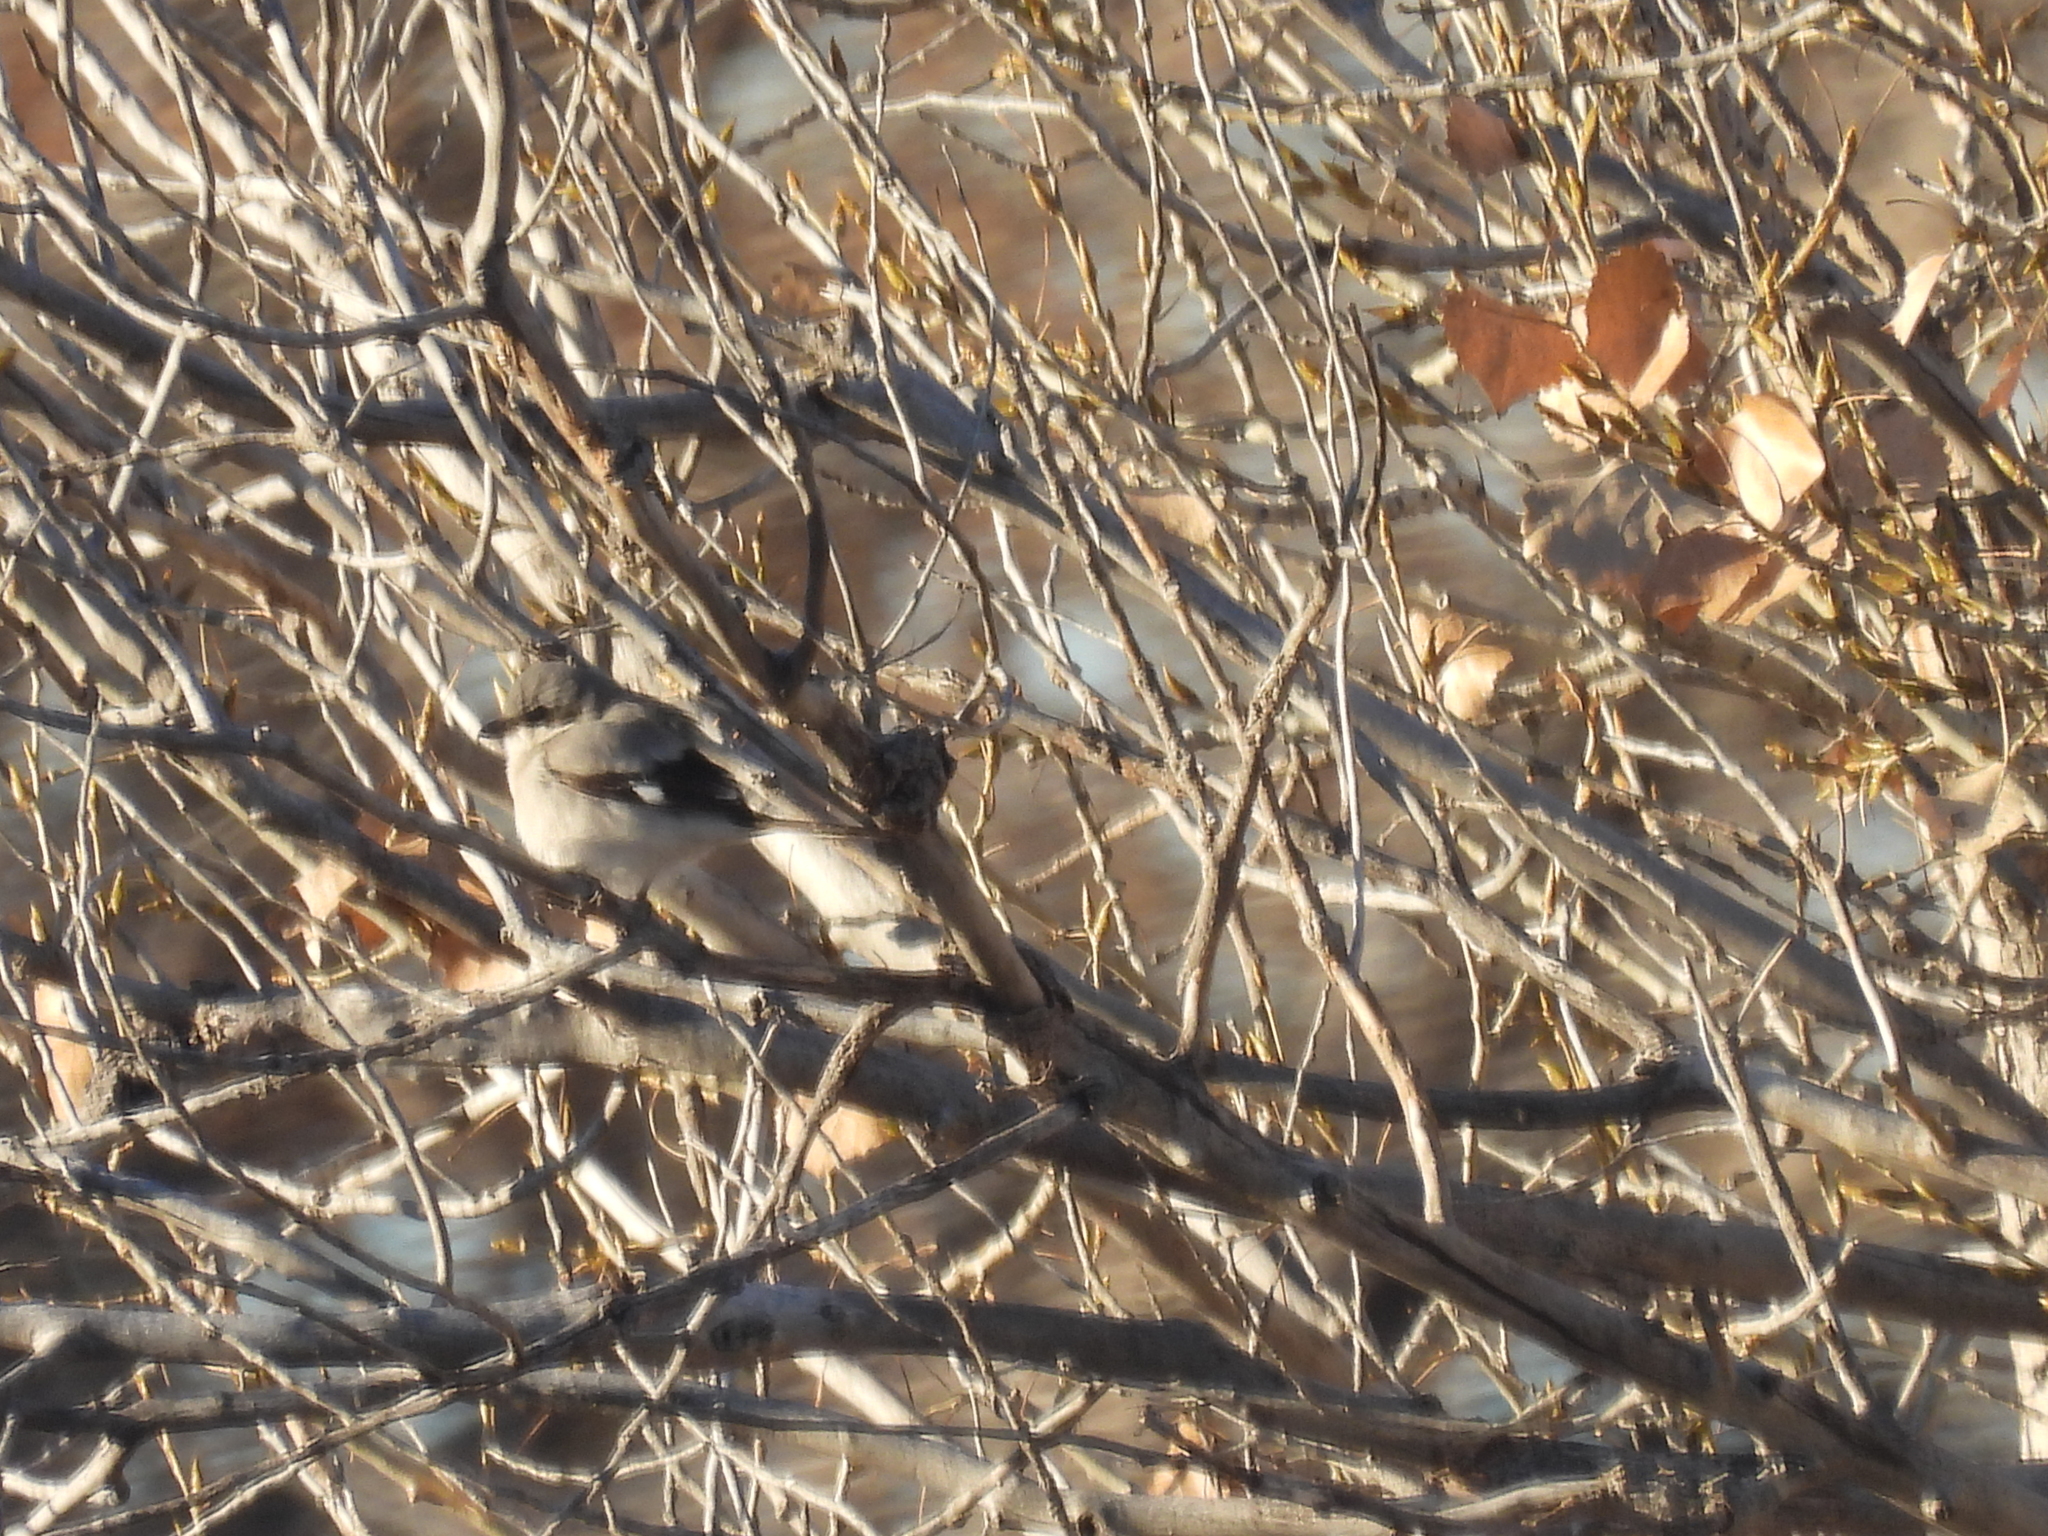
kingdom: Animalia
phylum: Chordata
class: Aves
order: Passeriformes
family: Laniidae
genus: Lanius
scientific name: Lanius ludovicianus
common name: Loggerhead shrike
